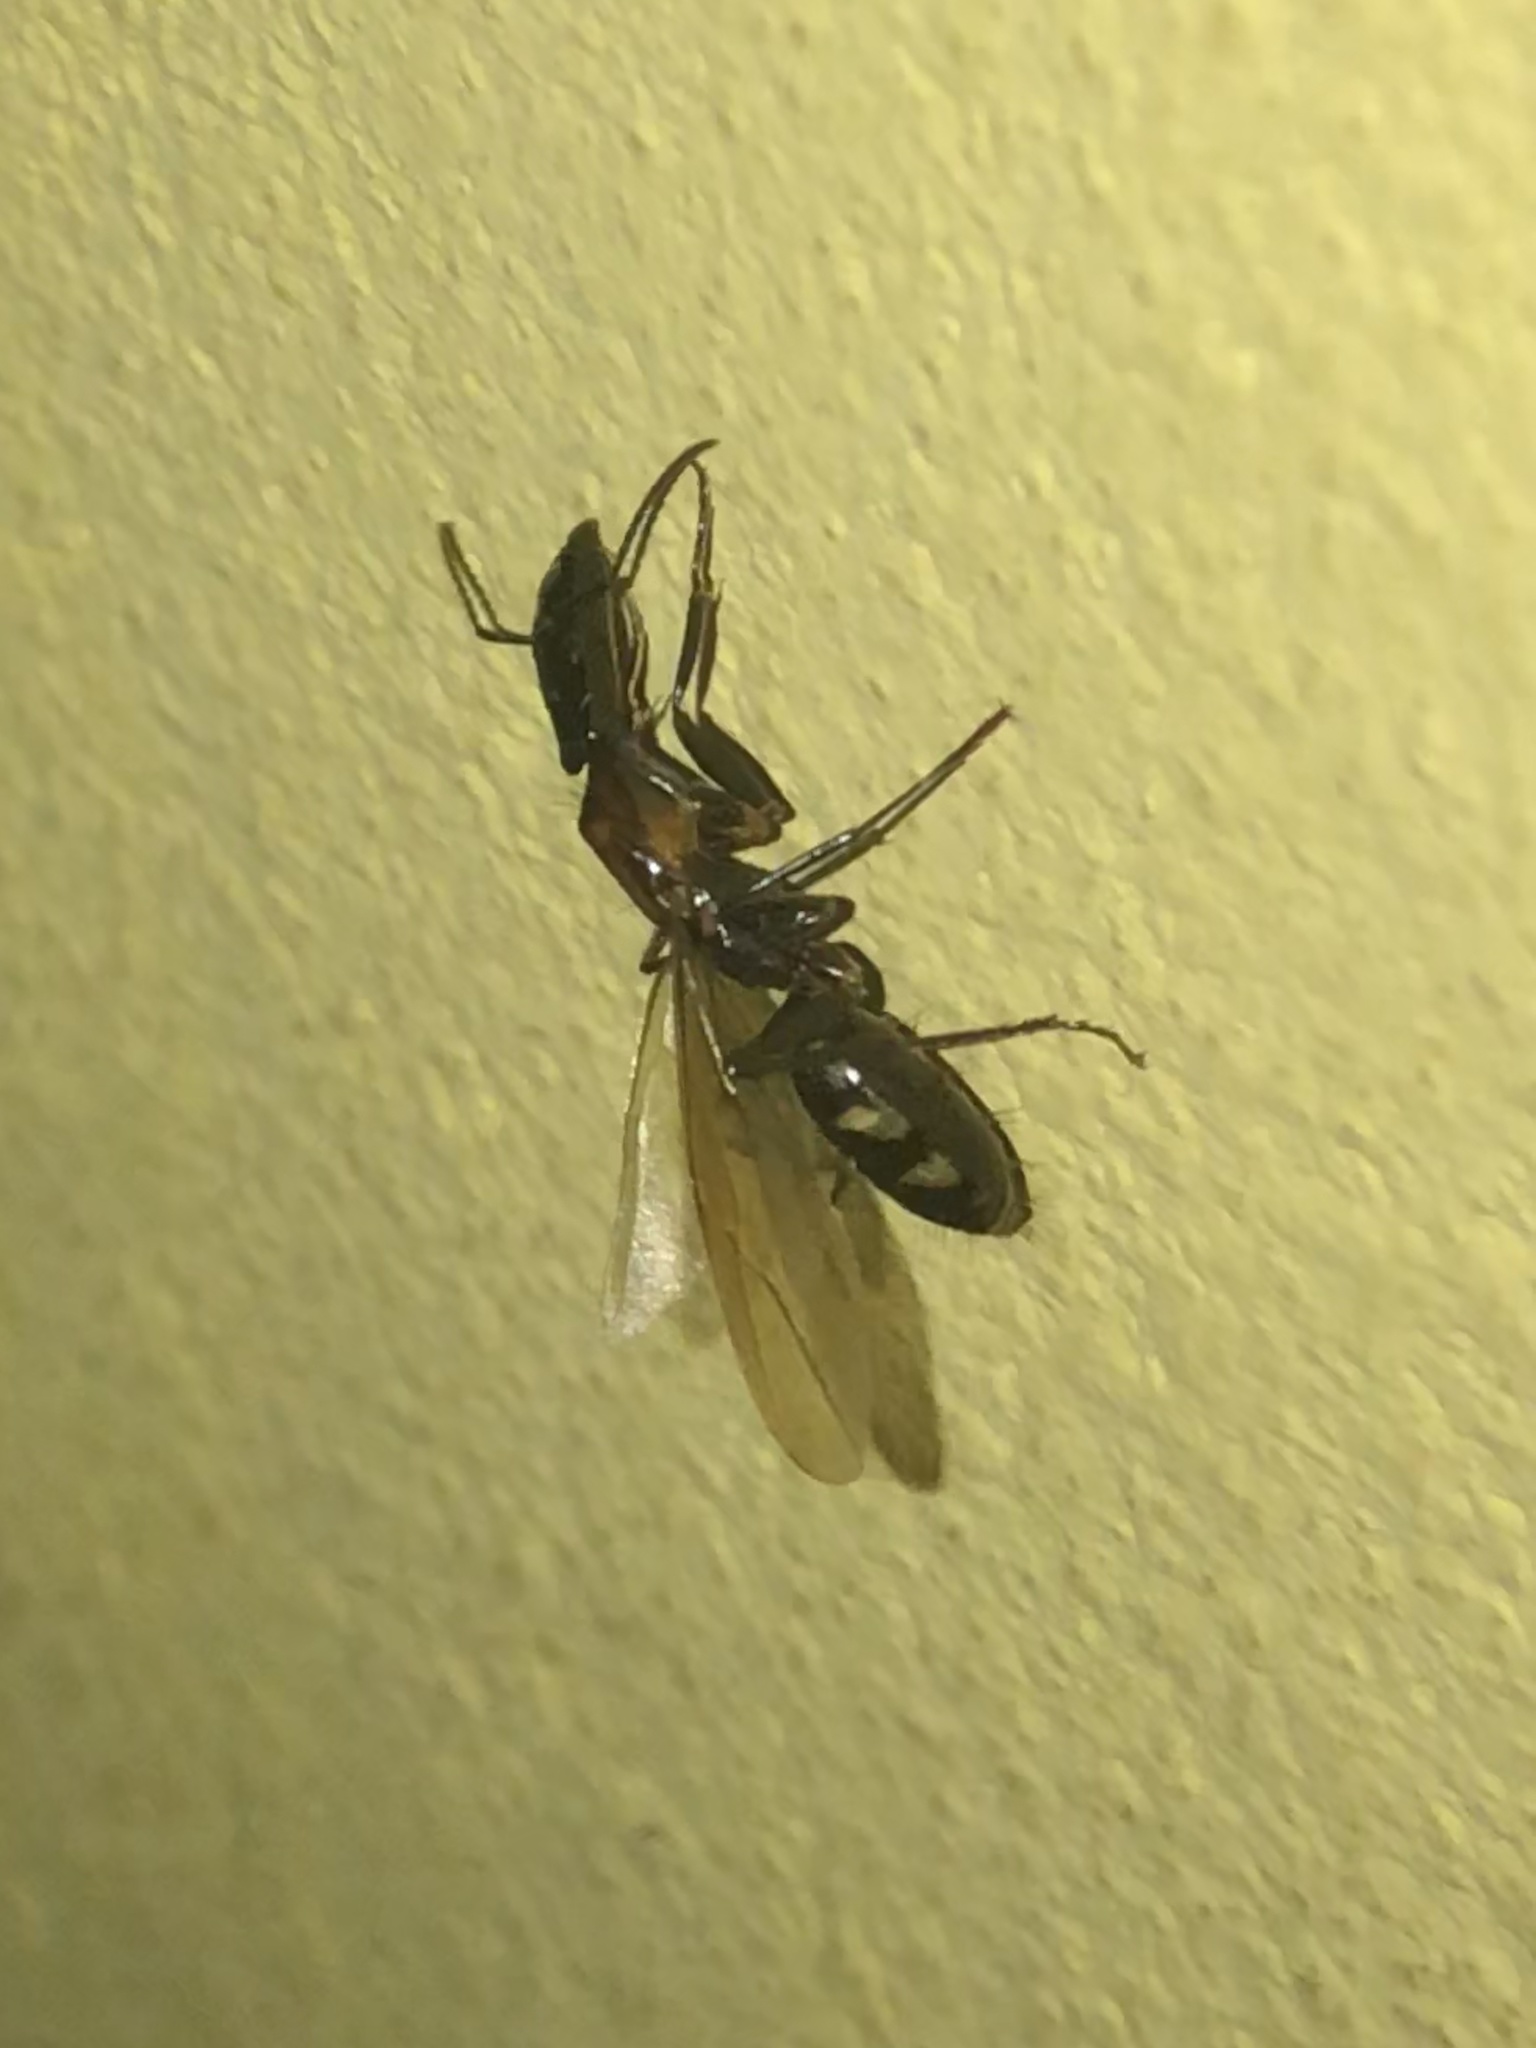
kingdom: Animalia
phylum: Arthropoda
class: Insecta
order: Hymenoptera
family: Formicidae
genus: Camponotus
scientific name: Camponotus mirabilis
